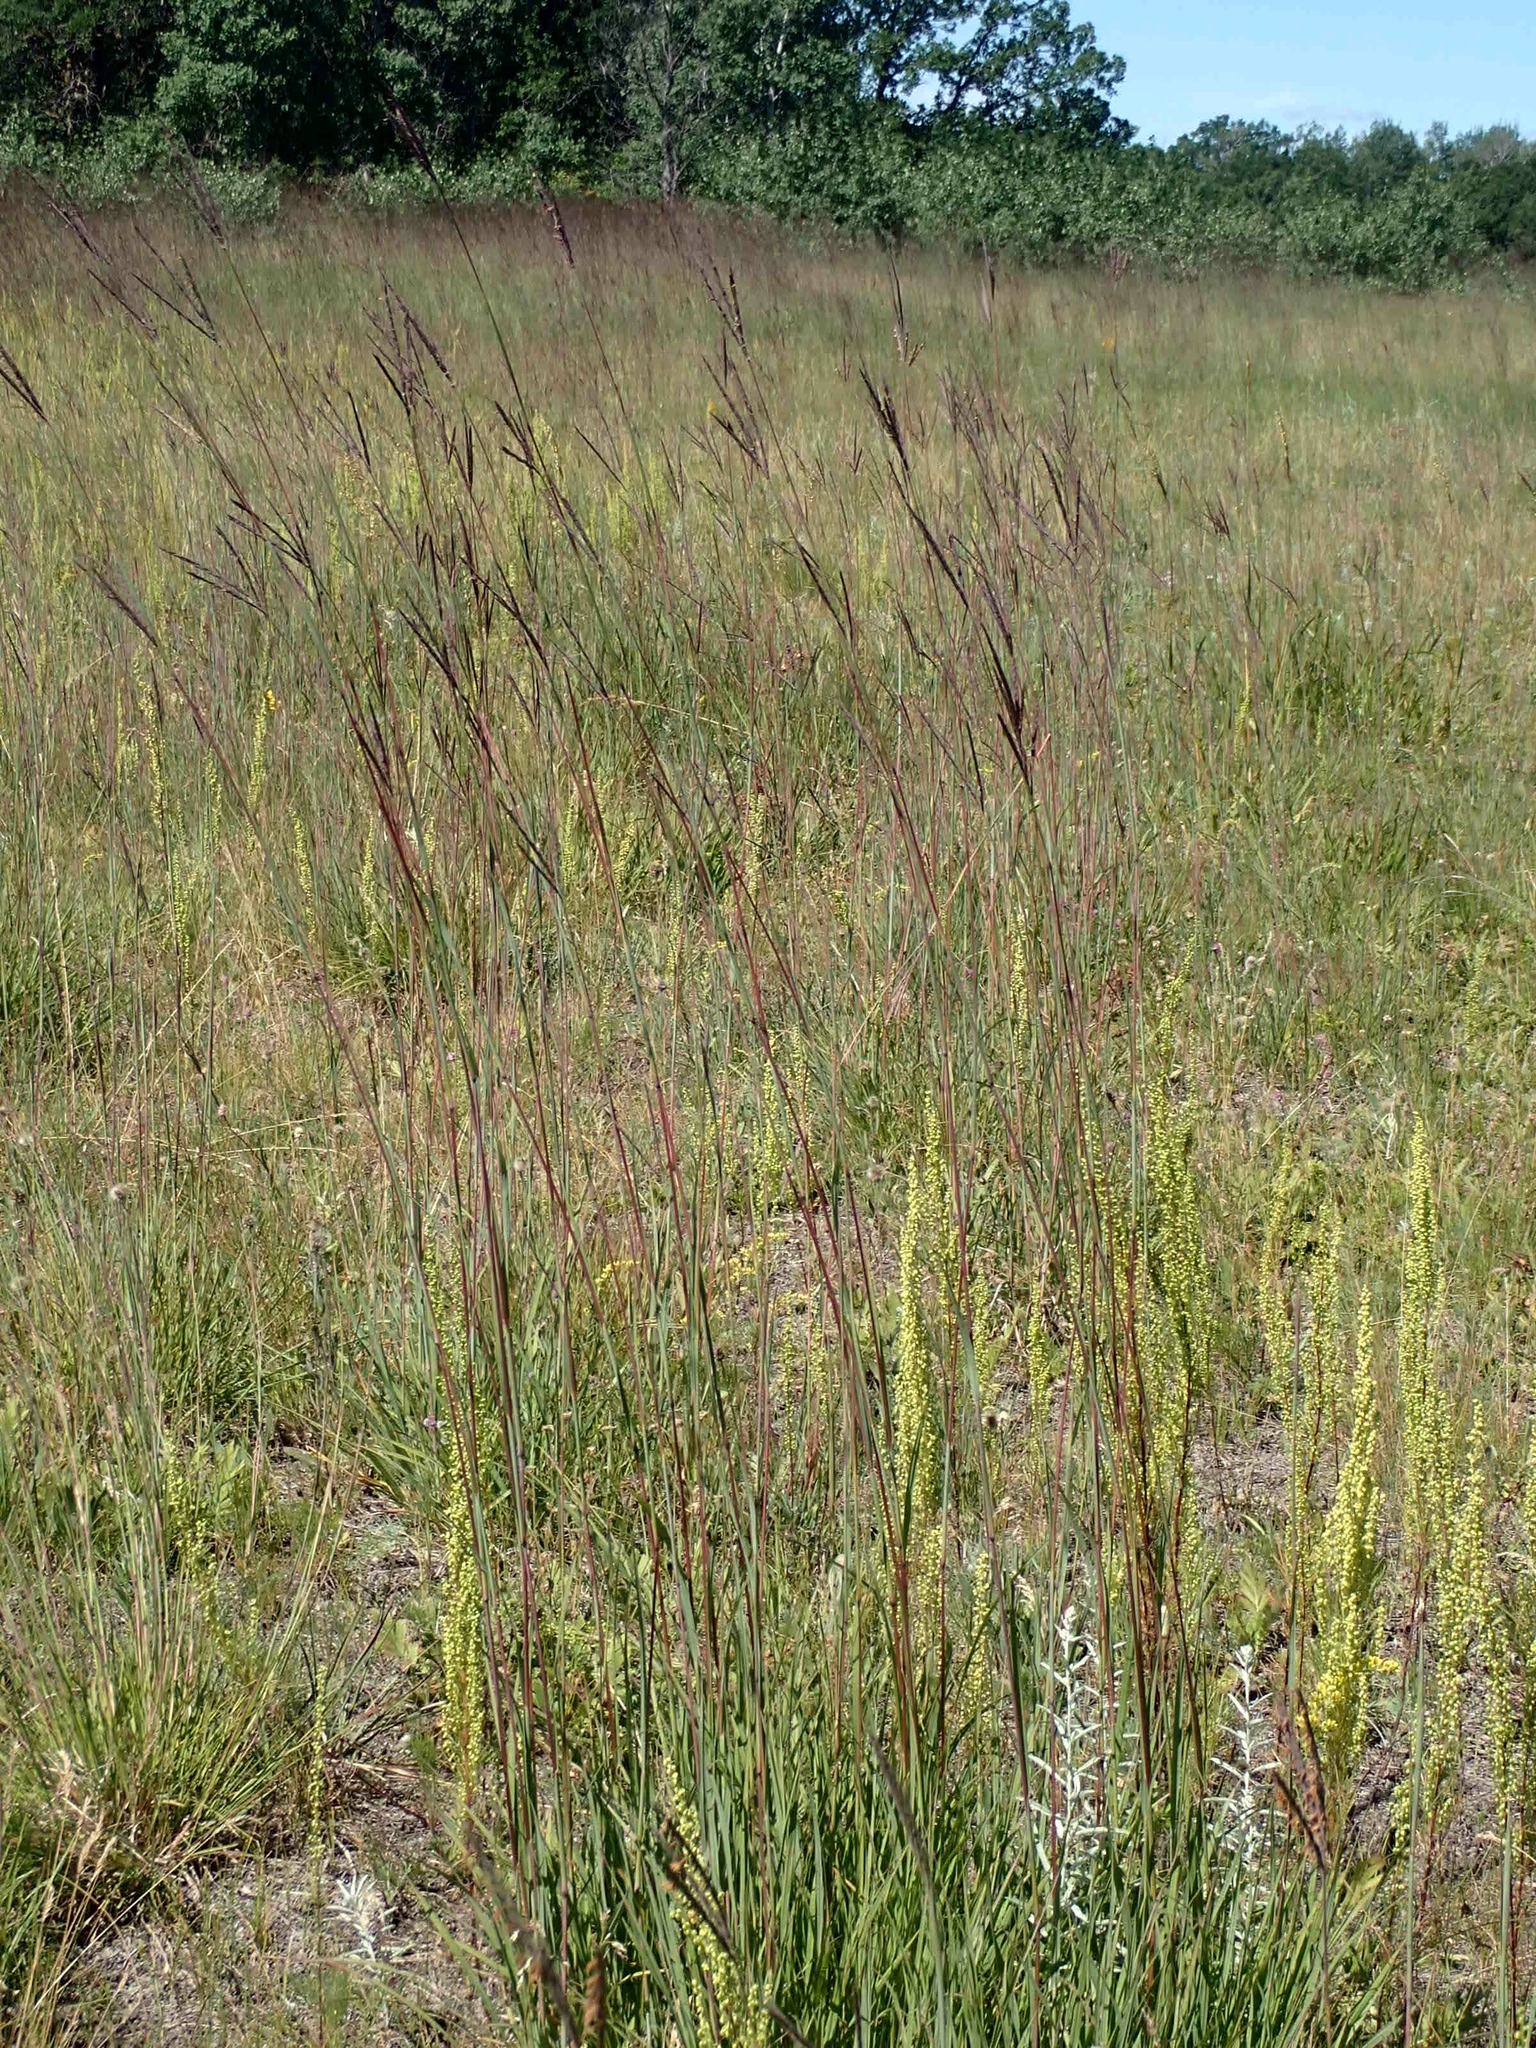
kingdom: Plantae
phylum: Tracheophyta
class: Liliopsida
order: Poales
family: Poaceae
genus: Andropogon
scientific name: Andropogon gerardi
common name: Big bluestem
